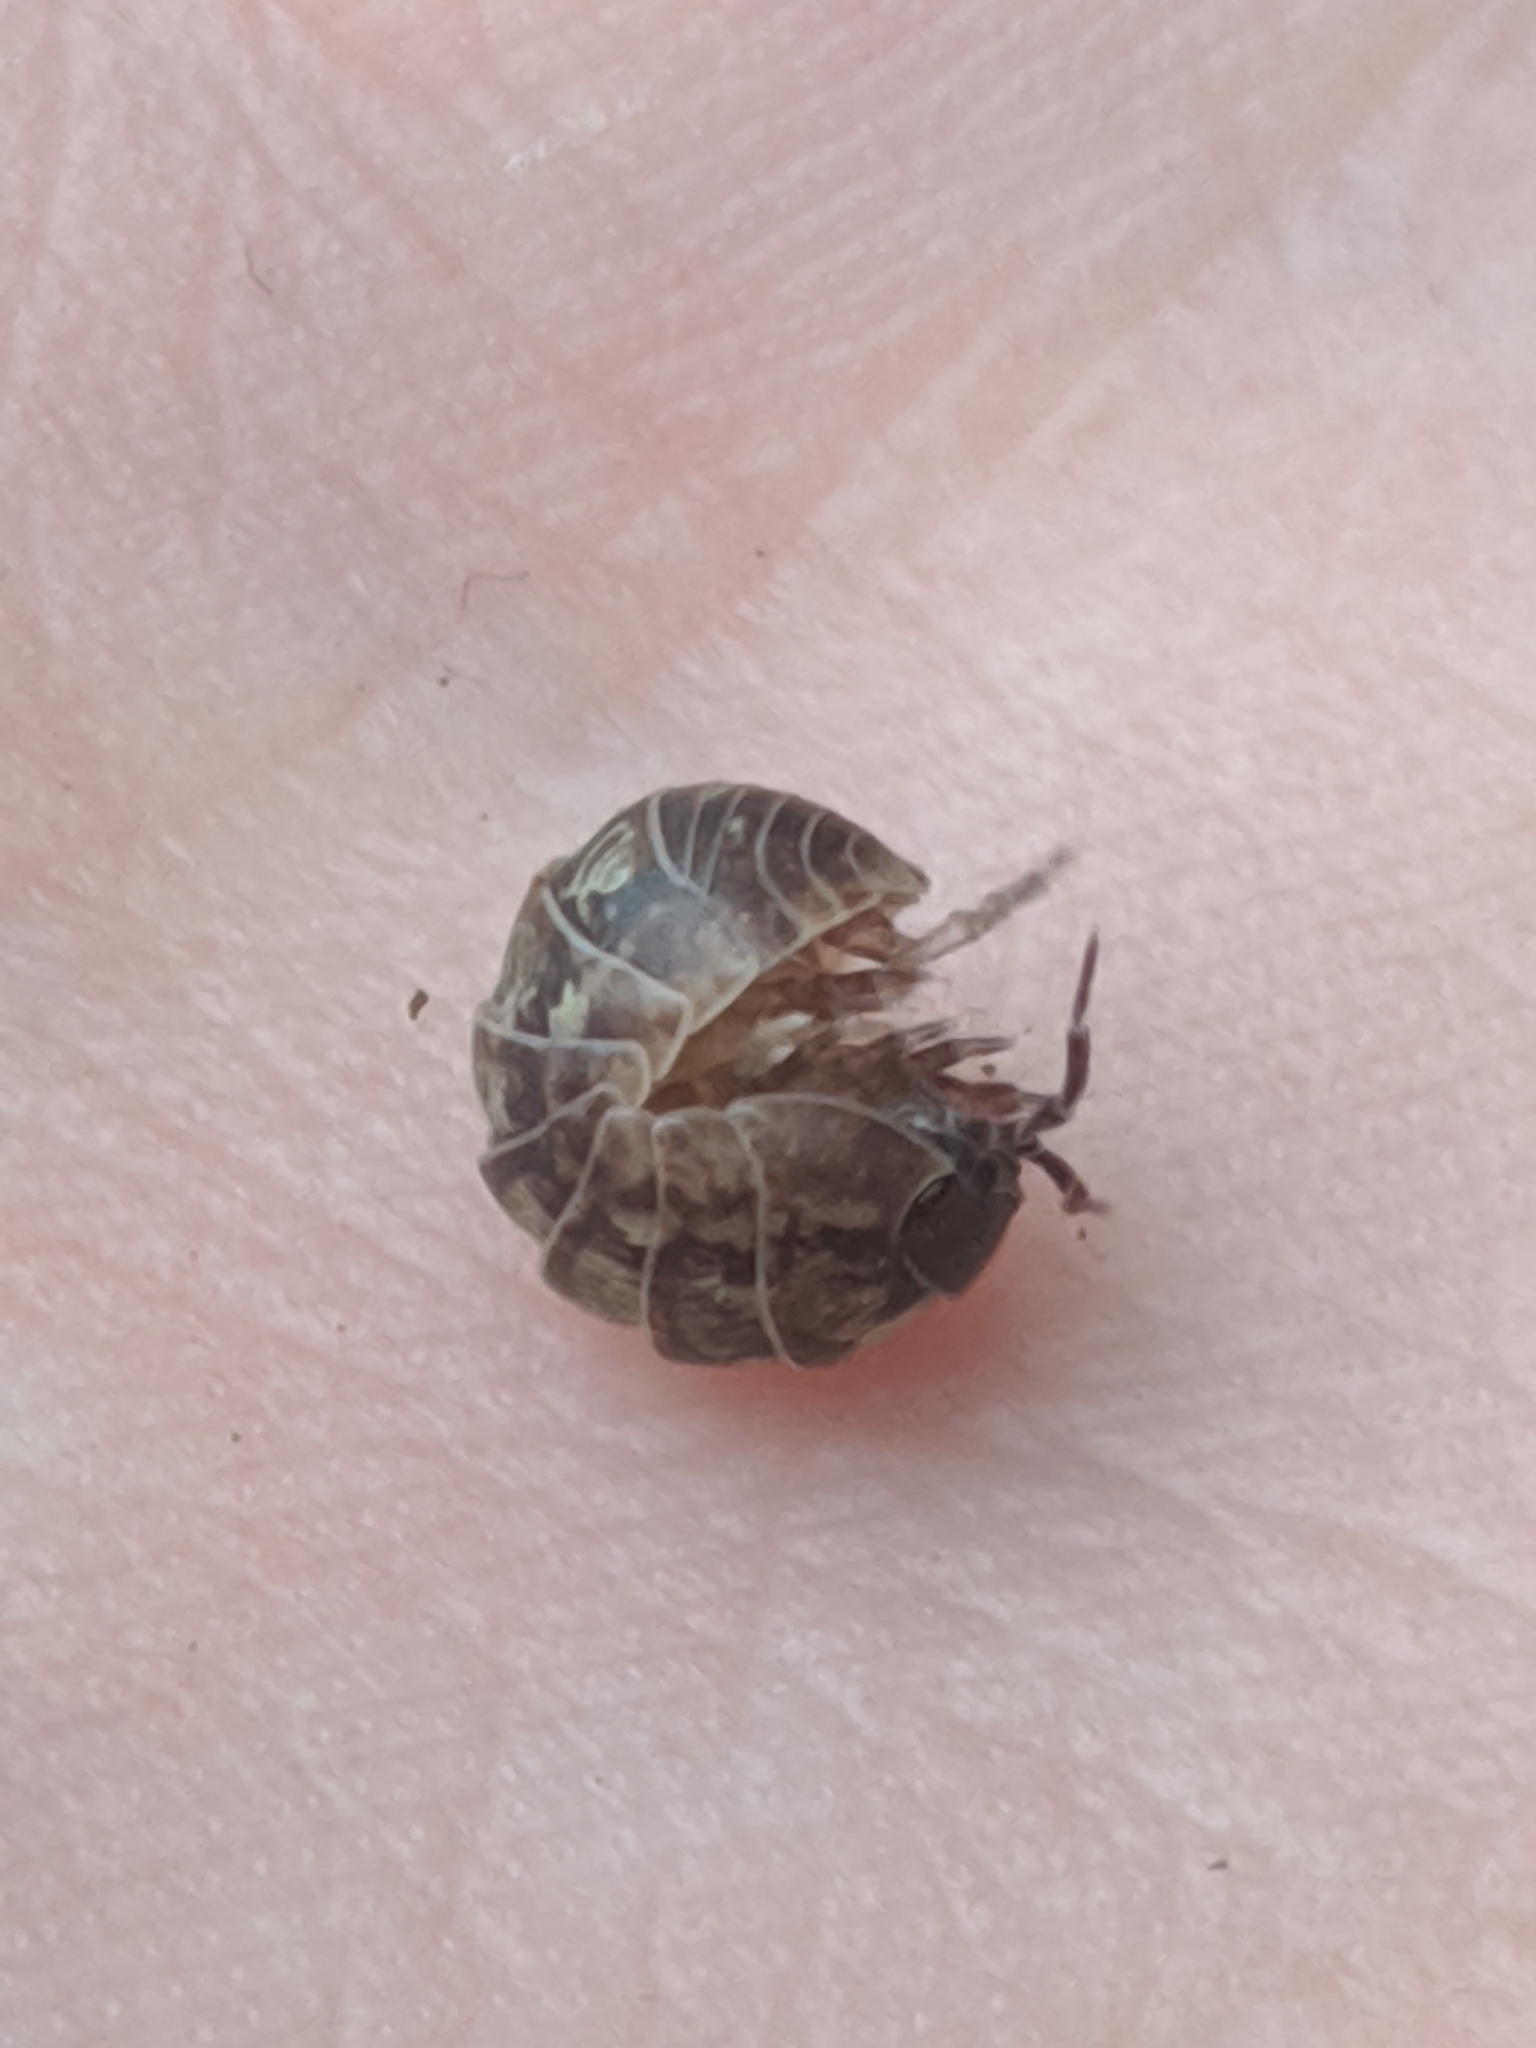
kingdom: Animalia
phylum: Arthropoda
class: Malacostraca
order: Isopoda
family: Armadillidiidae
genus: Armadillidium
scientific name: Armadillidium vulgare
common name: Common pill woodlouse
